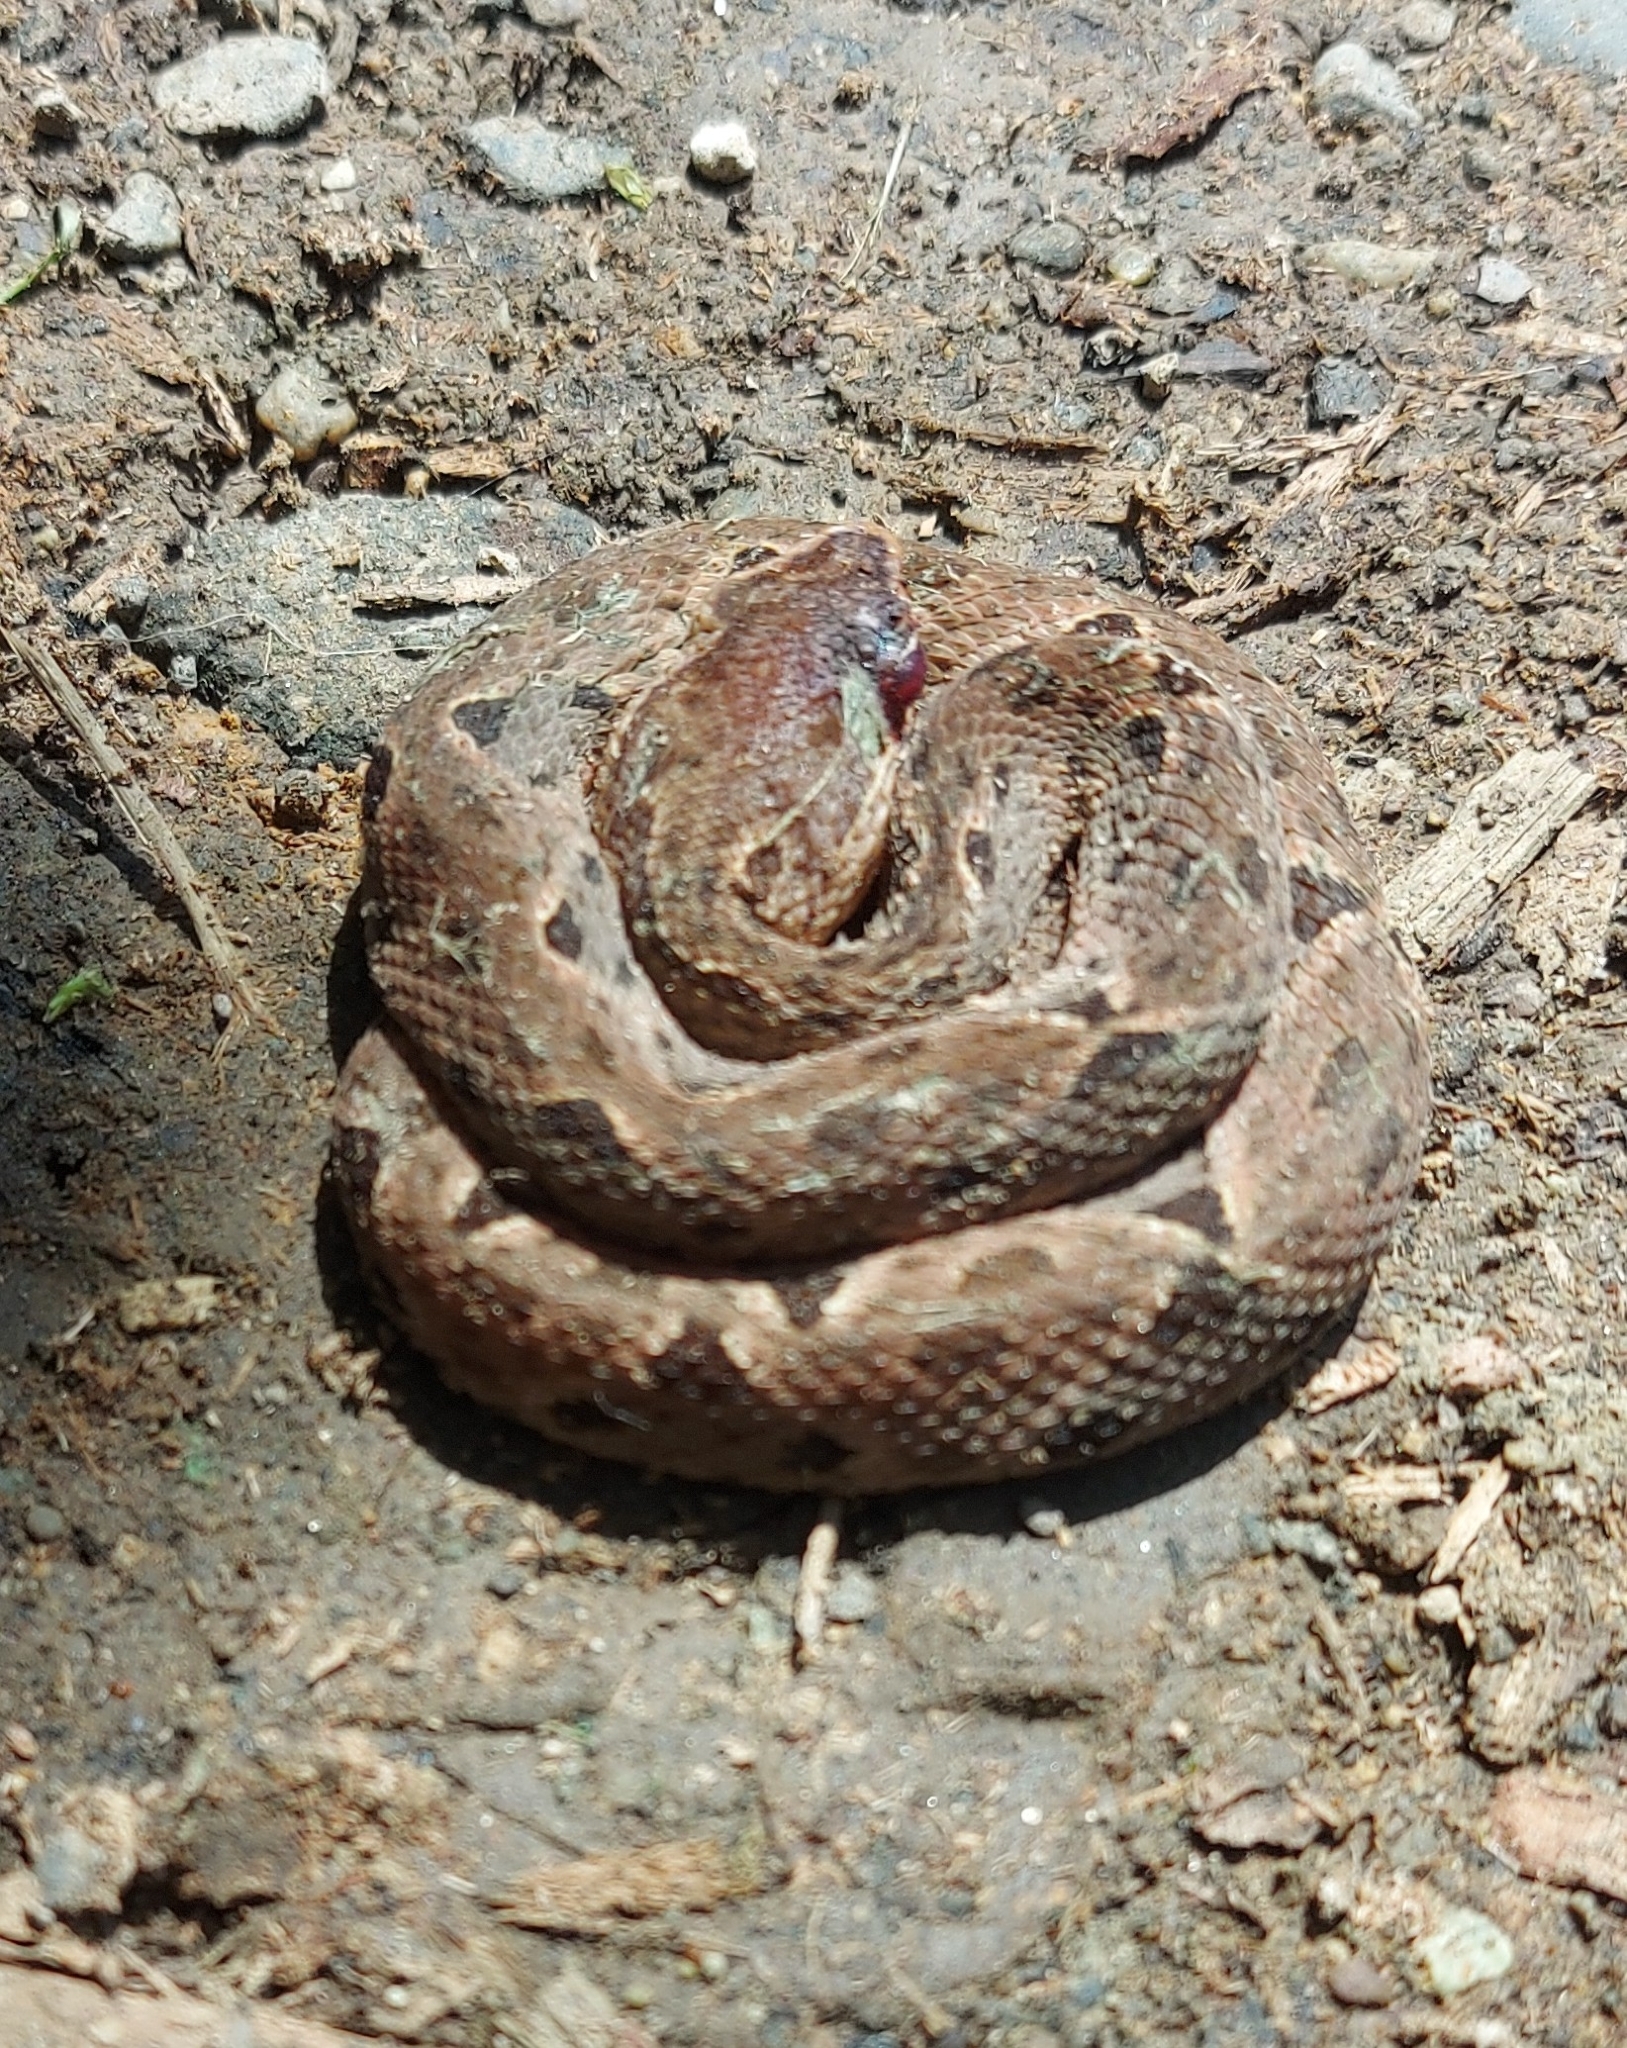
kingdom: Animalia
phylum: Chordata
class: Squamata
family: Viperidae
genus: Bothrops
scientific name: Bothrops asper
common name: Terciopelo
